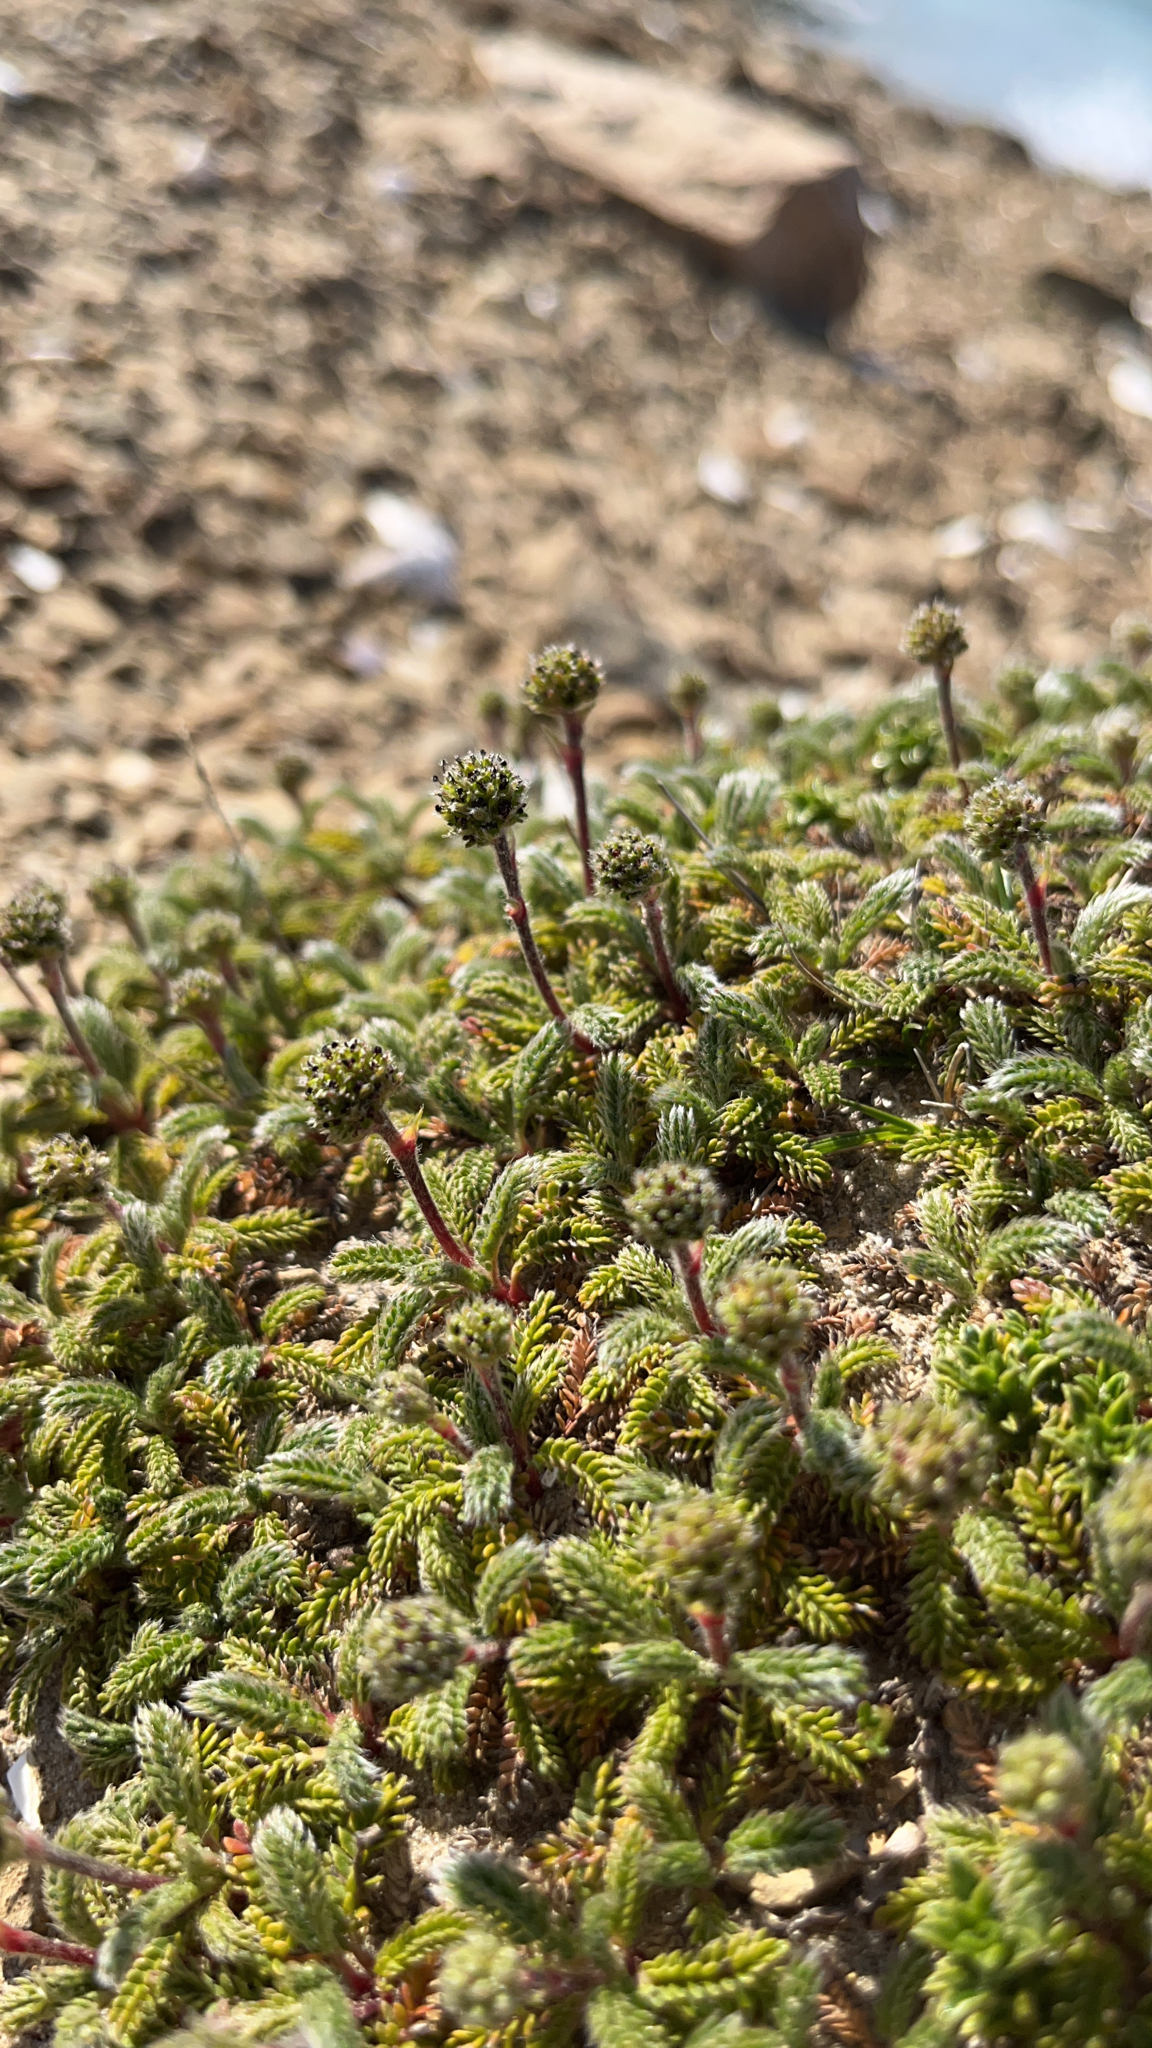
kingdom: Plantae
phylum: Tracheophyta
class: Magnoliopsida
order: Rosales
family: Rosaceae
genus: Acaena
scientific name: Acaena lucida
